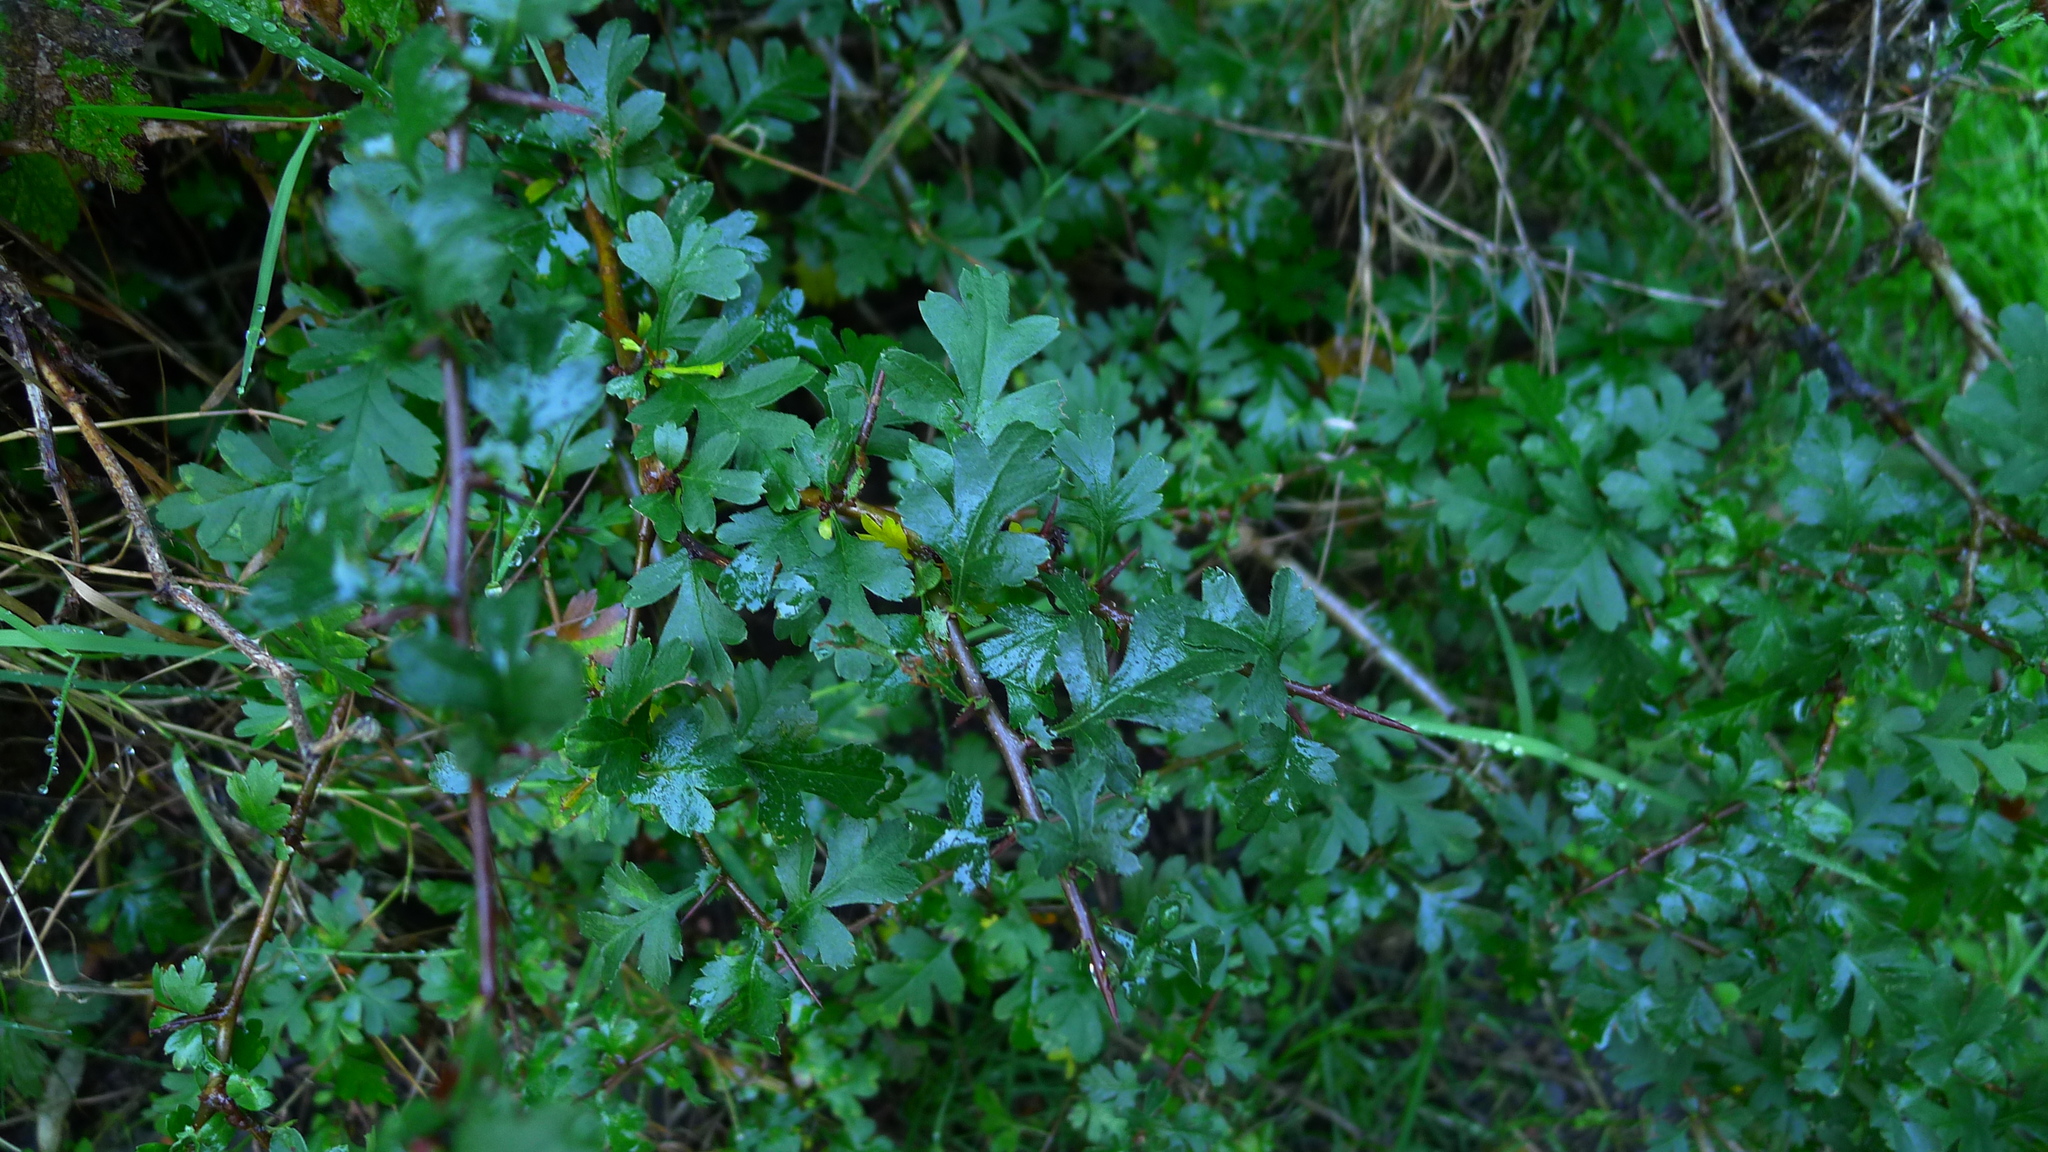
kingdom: Plantae
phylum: Tracheophyta
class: Magnoliopsida
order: Rosales
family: Rosaceae
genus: Crataegus
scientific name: Crataegus monogyna
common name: Hawthorn
